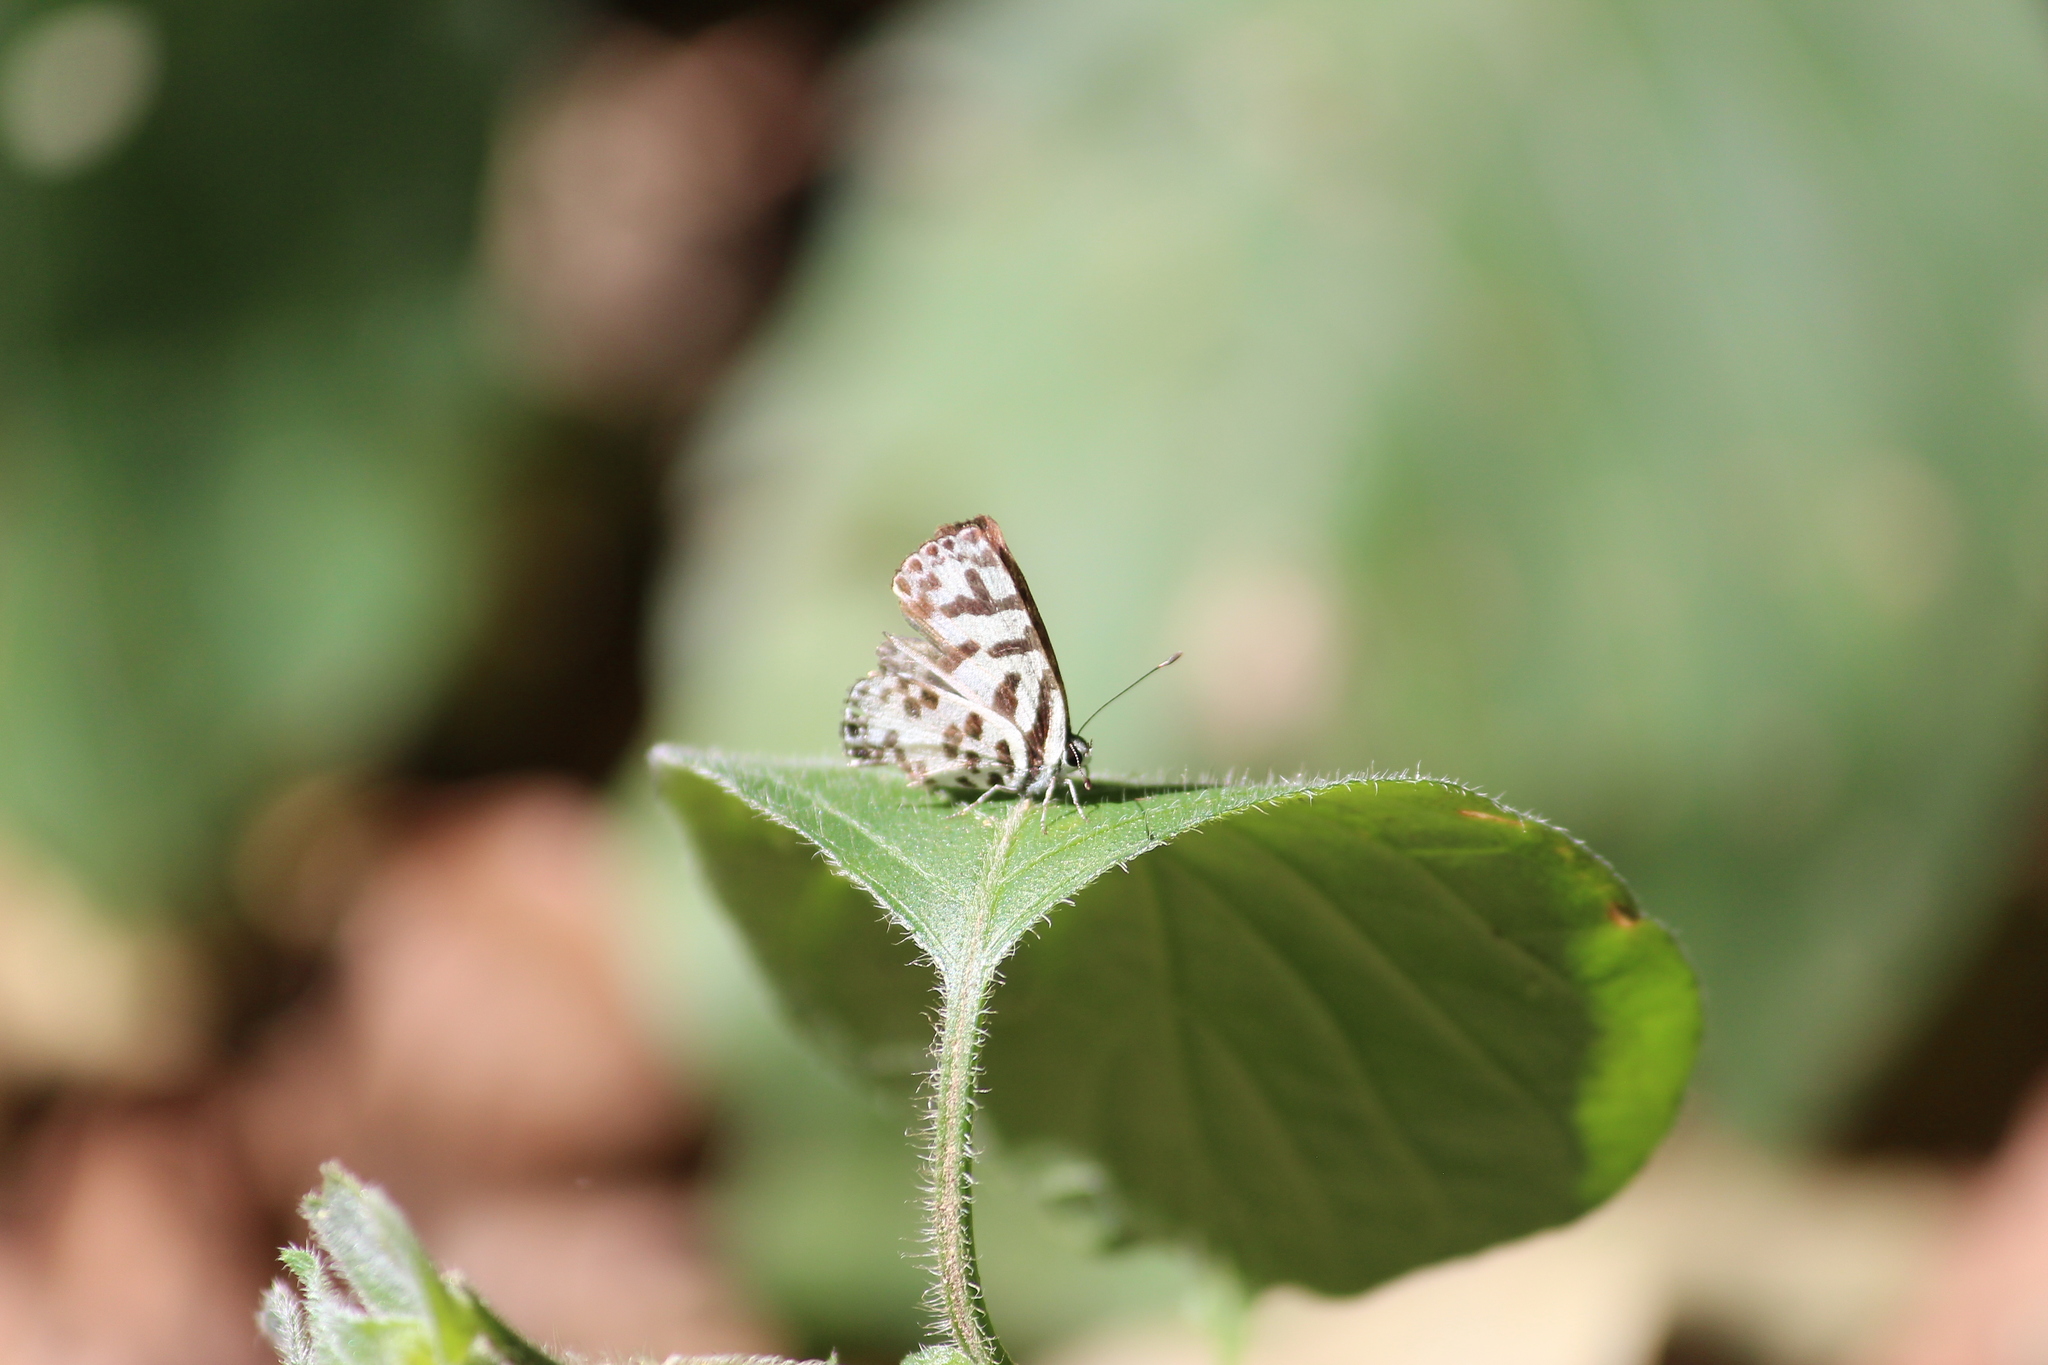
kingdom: Animalia
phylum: Arthropoda
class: Insecta
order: Lepidoptera
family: Lycaenidae
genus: Castalius
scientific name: Castalius melaena
